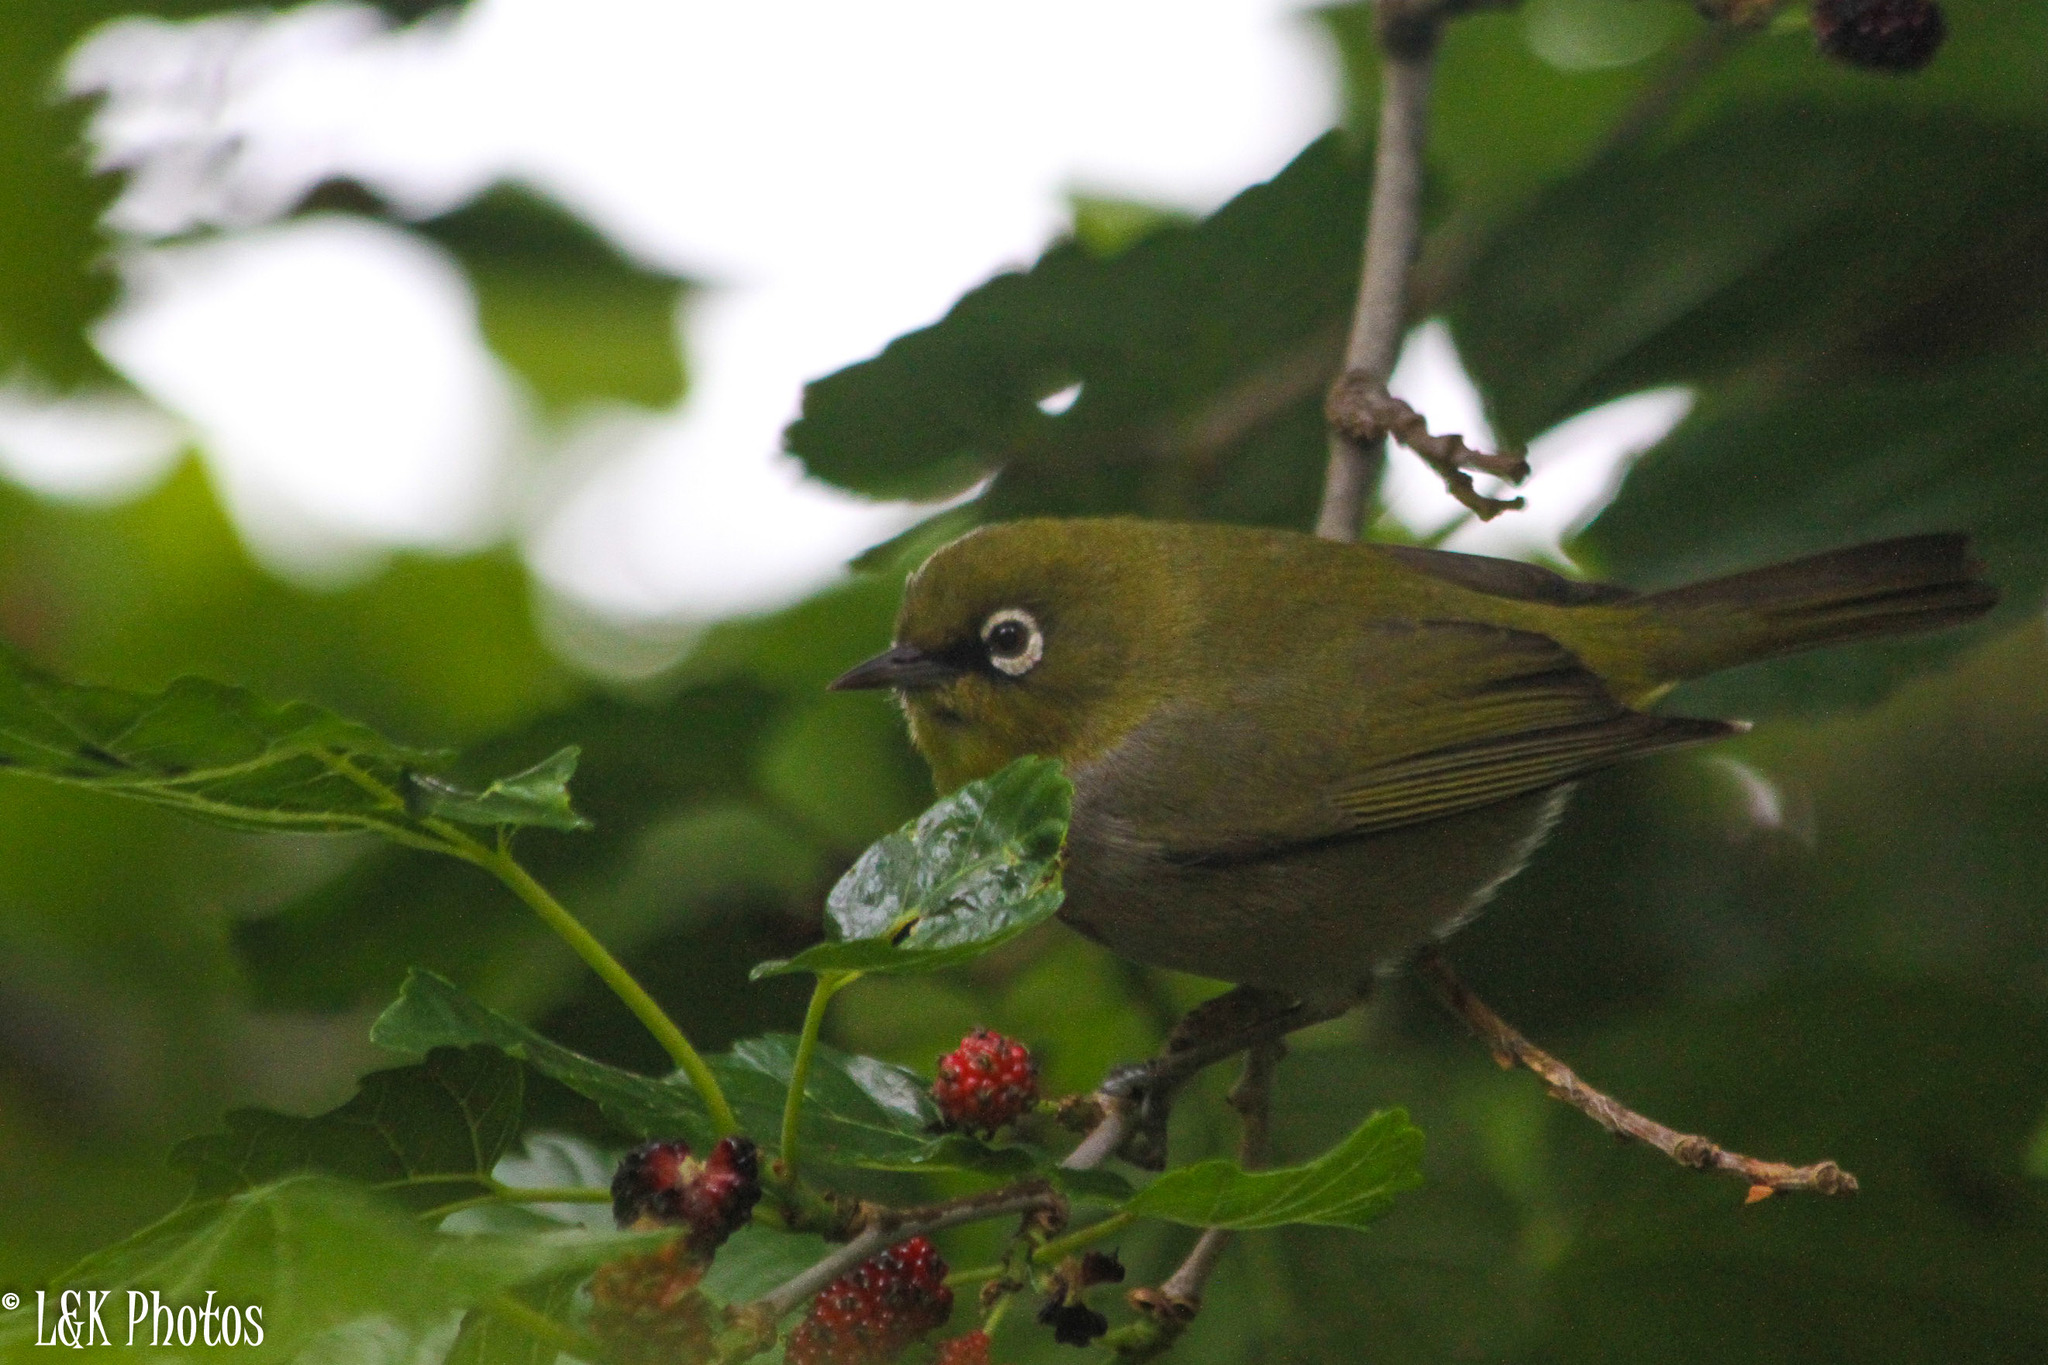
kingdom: Animalia
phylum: Chordata
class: Aves
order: Passeriformes
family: Zosteropidae
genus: Zosterops
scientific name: Zosterops virens
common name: Cape white-eye
